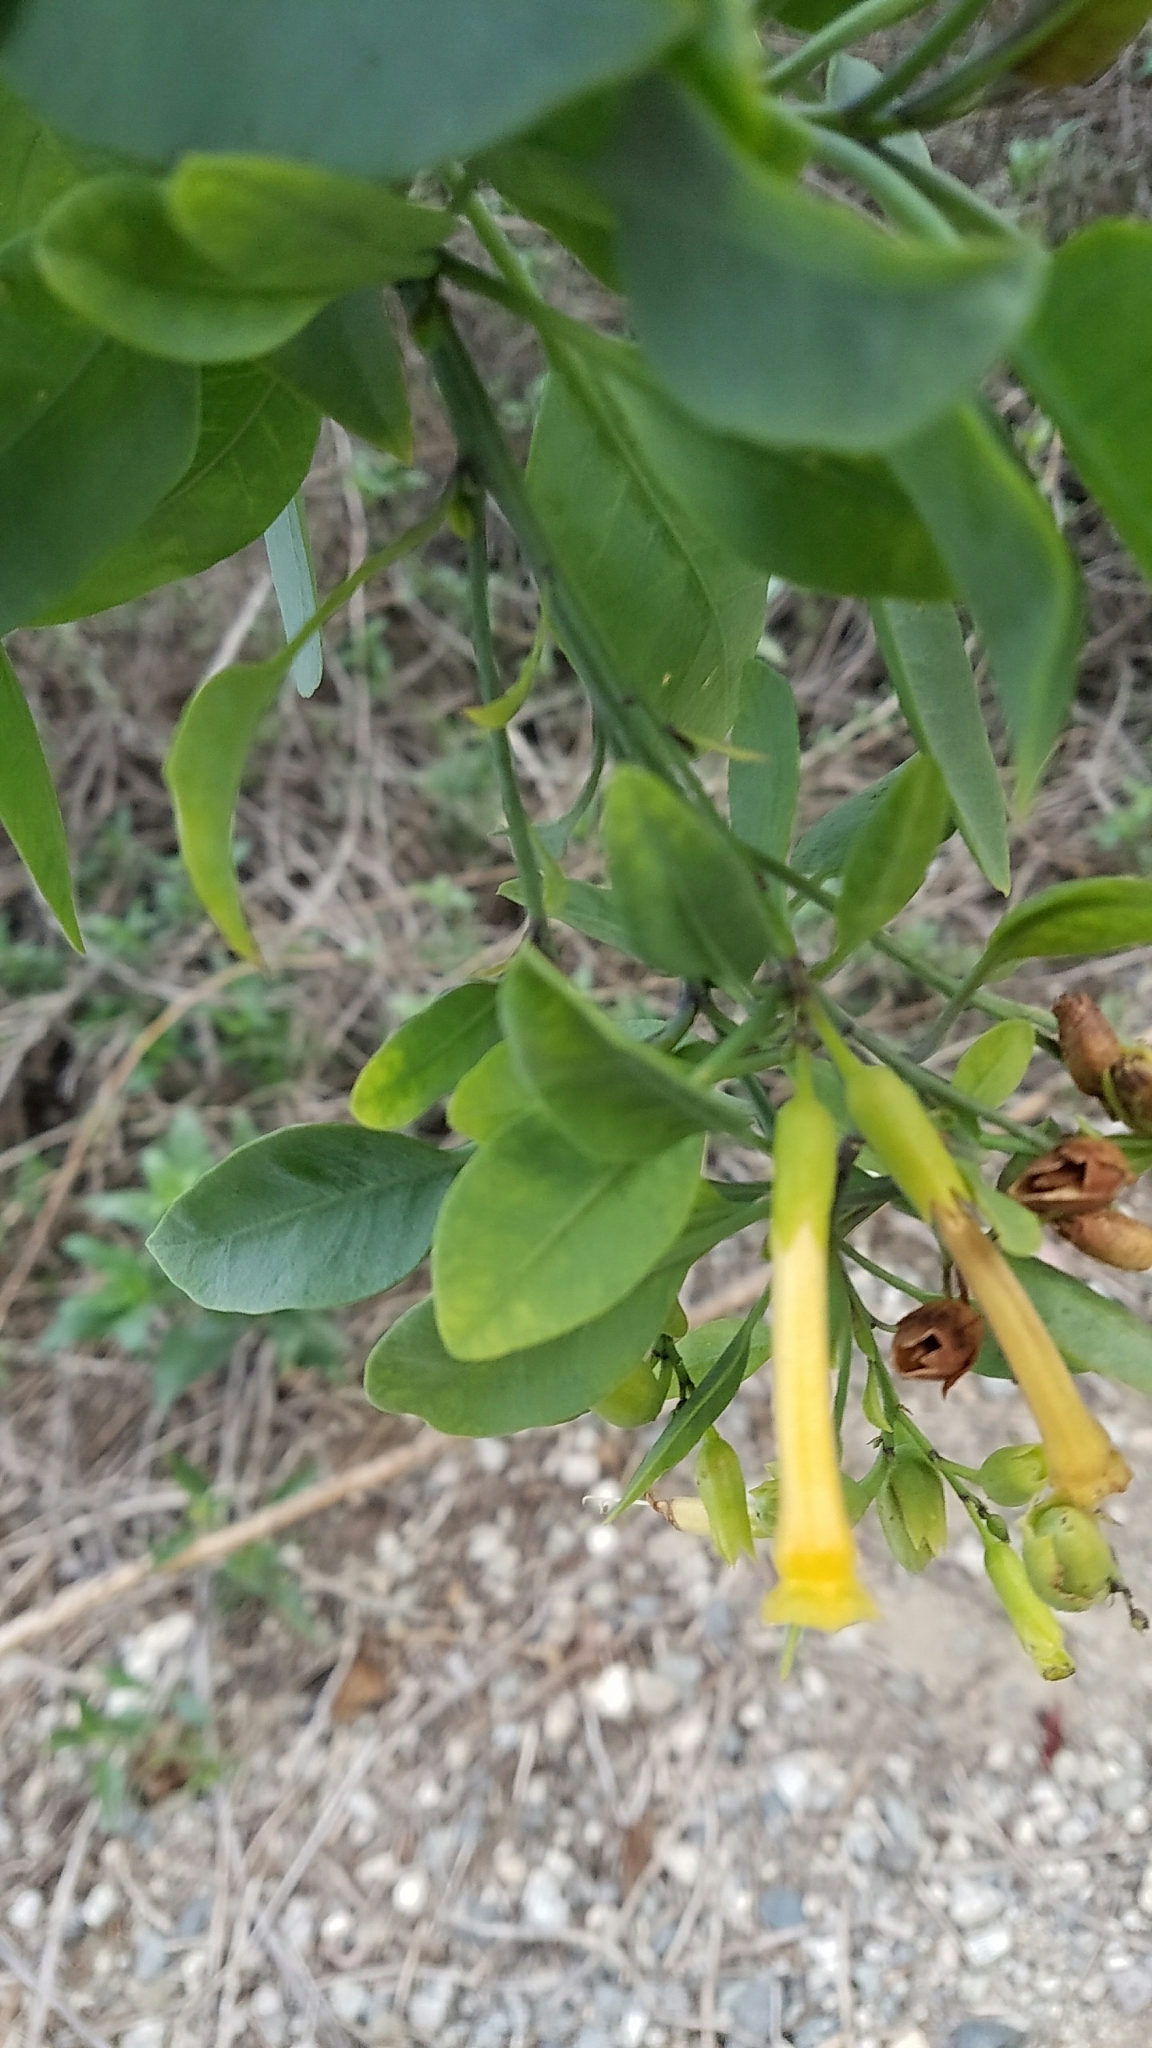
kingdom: Plantae
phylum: Tracheophyta
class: Magnoliopsida
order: Solanales
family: Solanaceae
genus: Nicotiana
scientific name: Nicotiana glauca
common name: Tree tobacco
